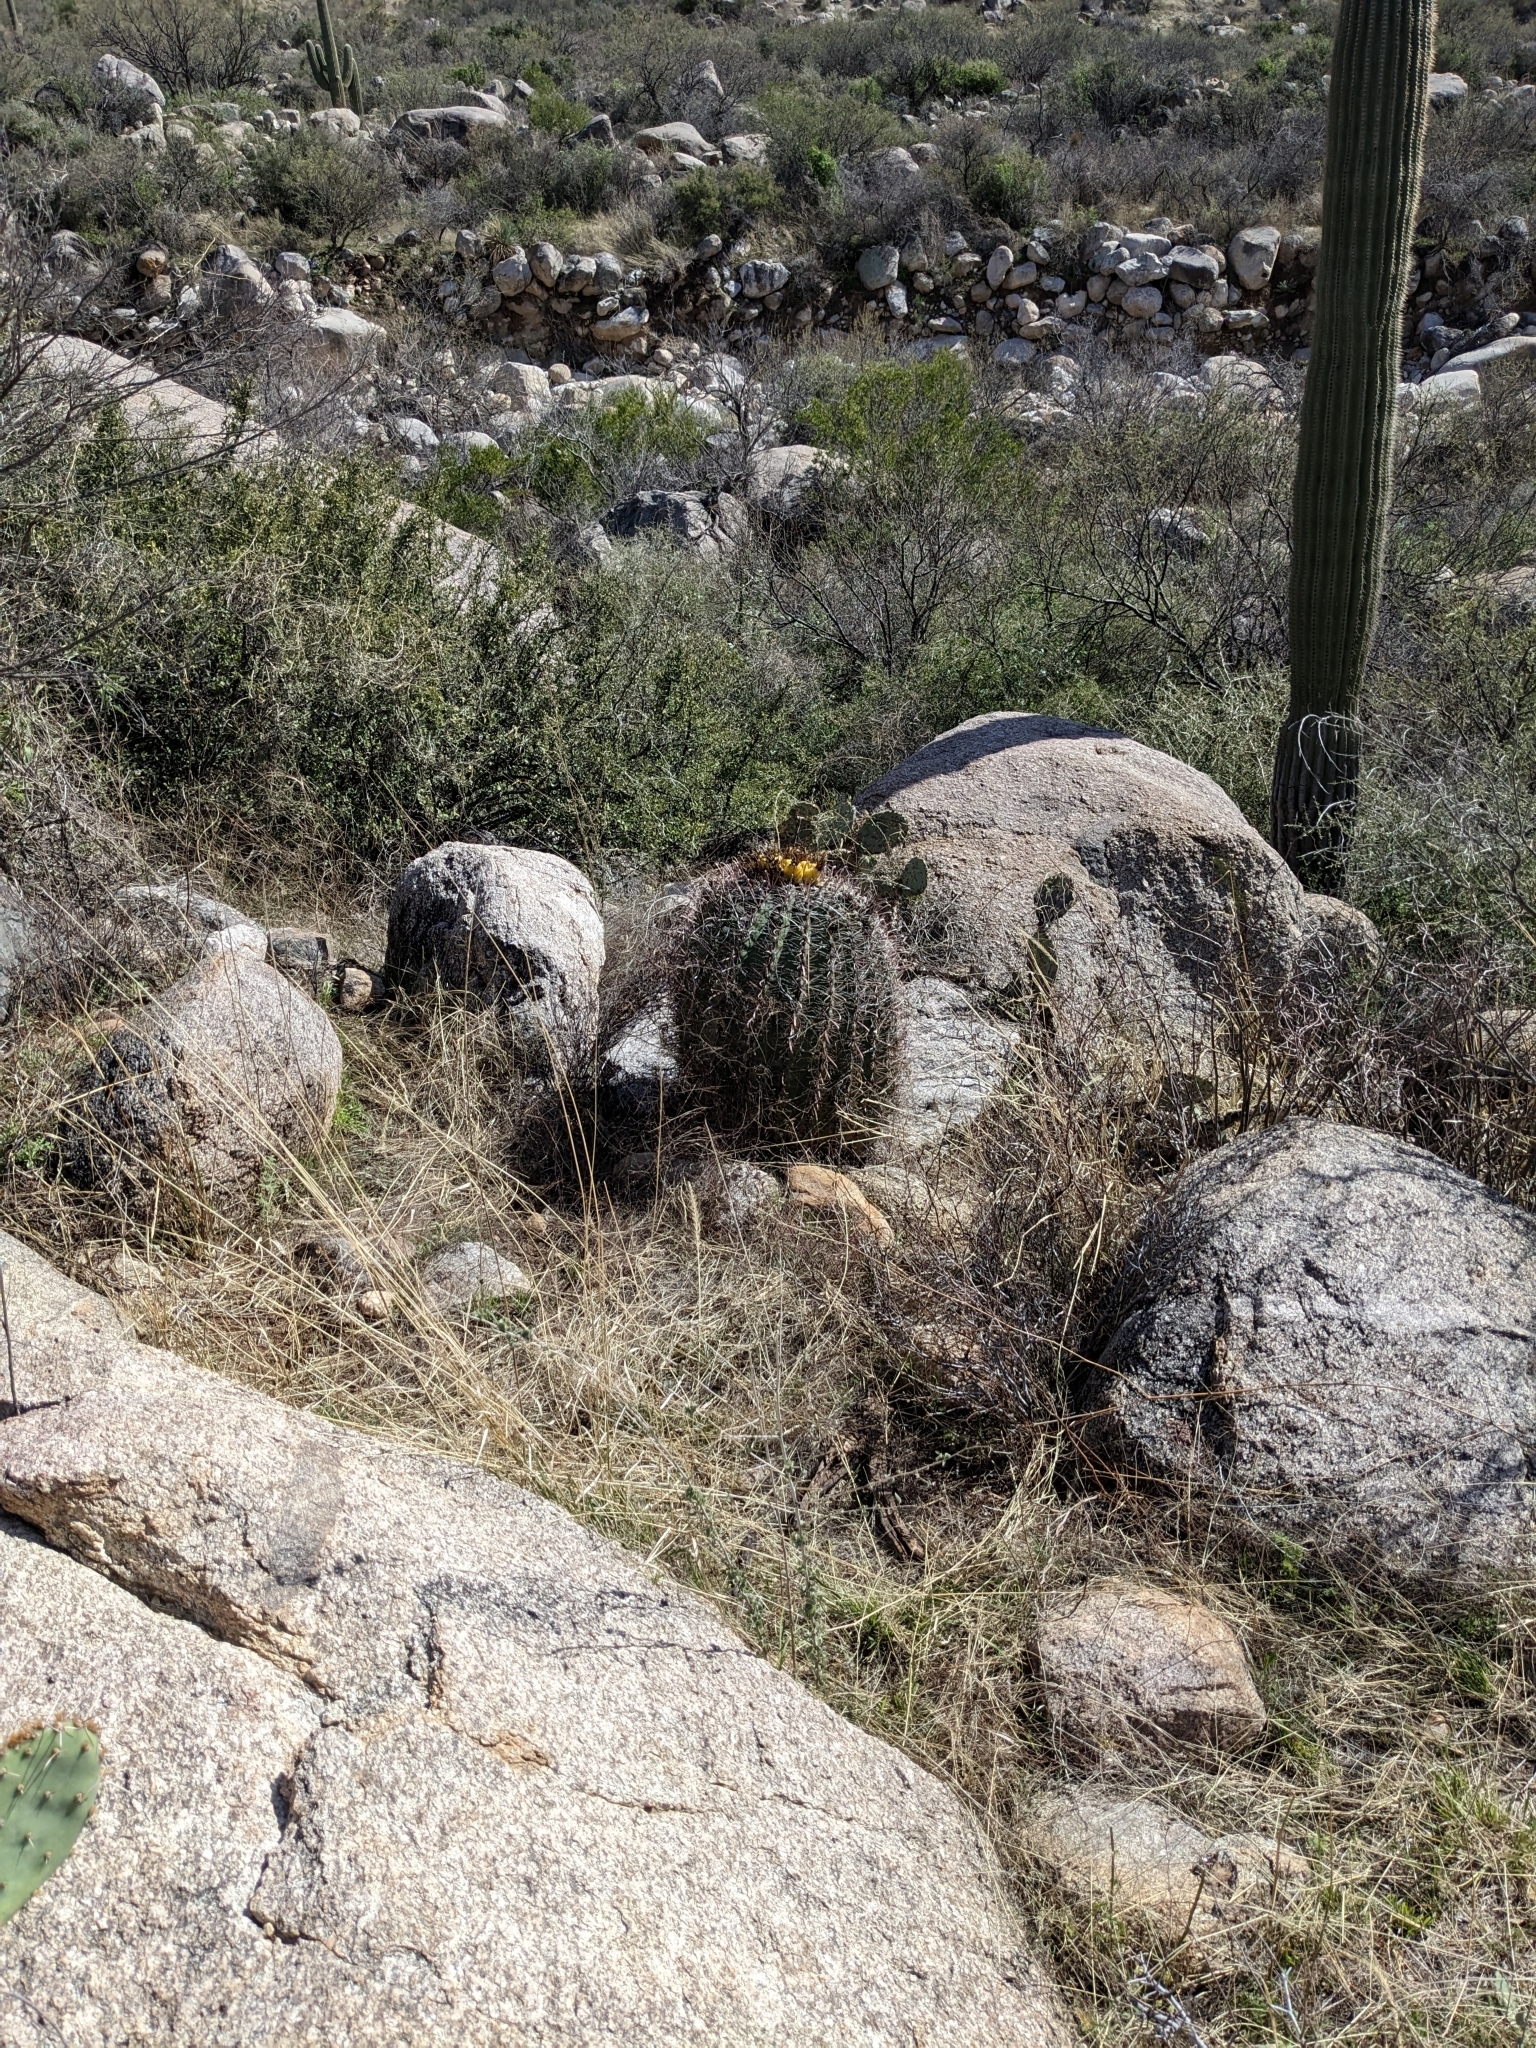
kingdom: Plantae
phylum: Tracheophyta
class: Magnoliopsida
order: Caryophyllales
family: Cactaceae
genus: Ferocactus
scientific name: Ferocactus wislizeni
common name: Candy barrel cactus
